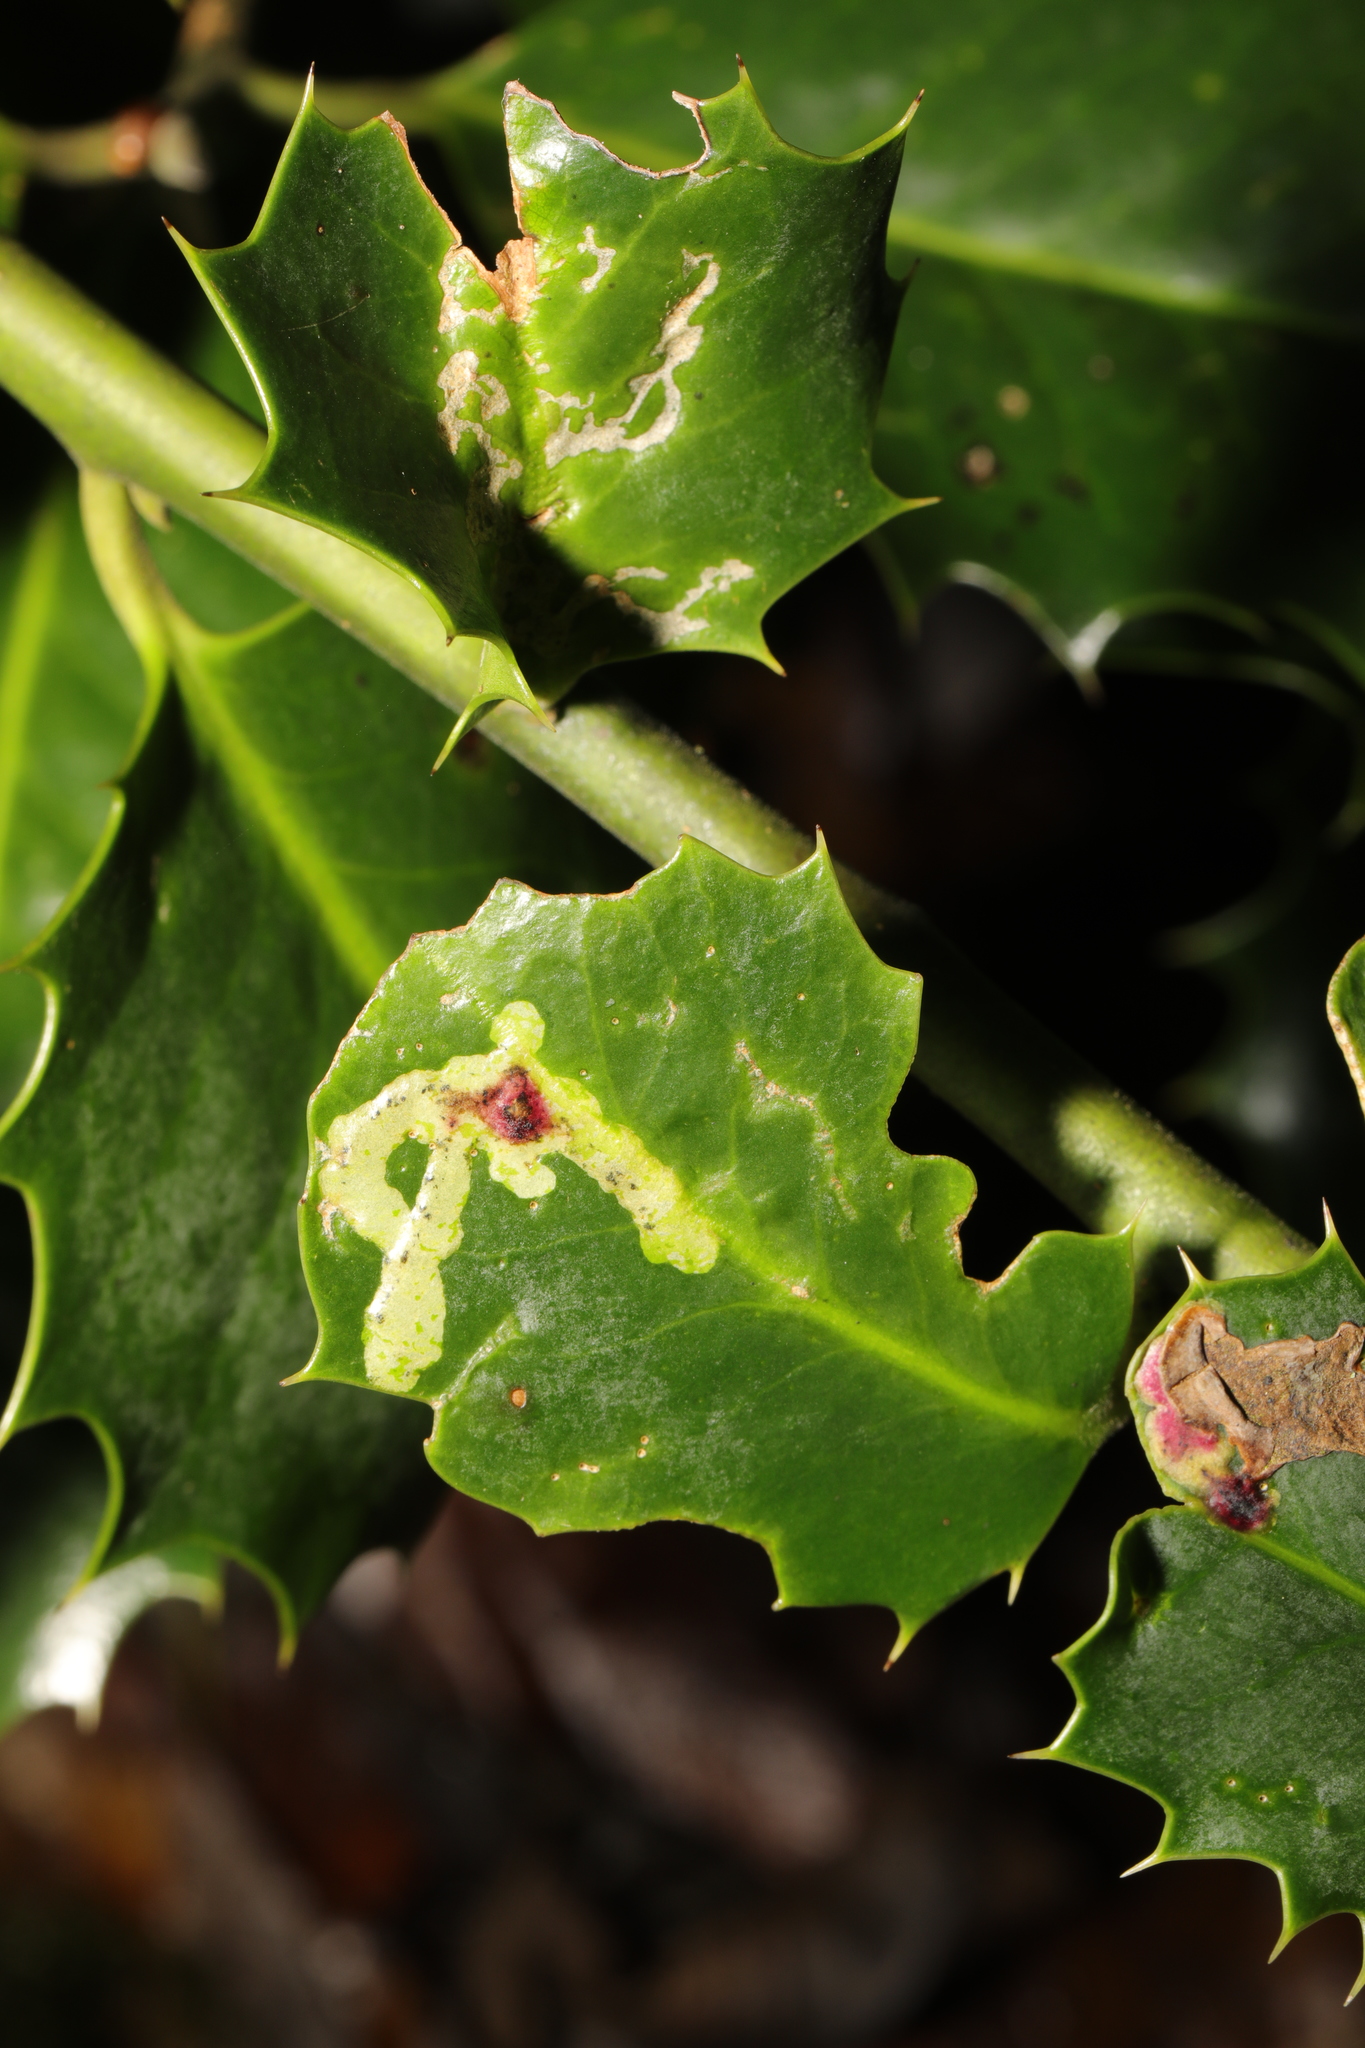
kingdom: Animalia
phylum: Arthropoda
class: Insecta
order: Diptera
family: Agromyzidae
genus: Phytomyza
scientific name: Phytomyza ilicis
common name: Holly leafminer
